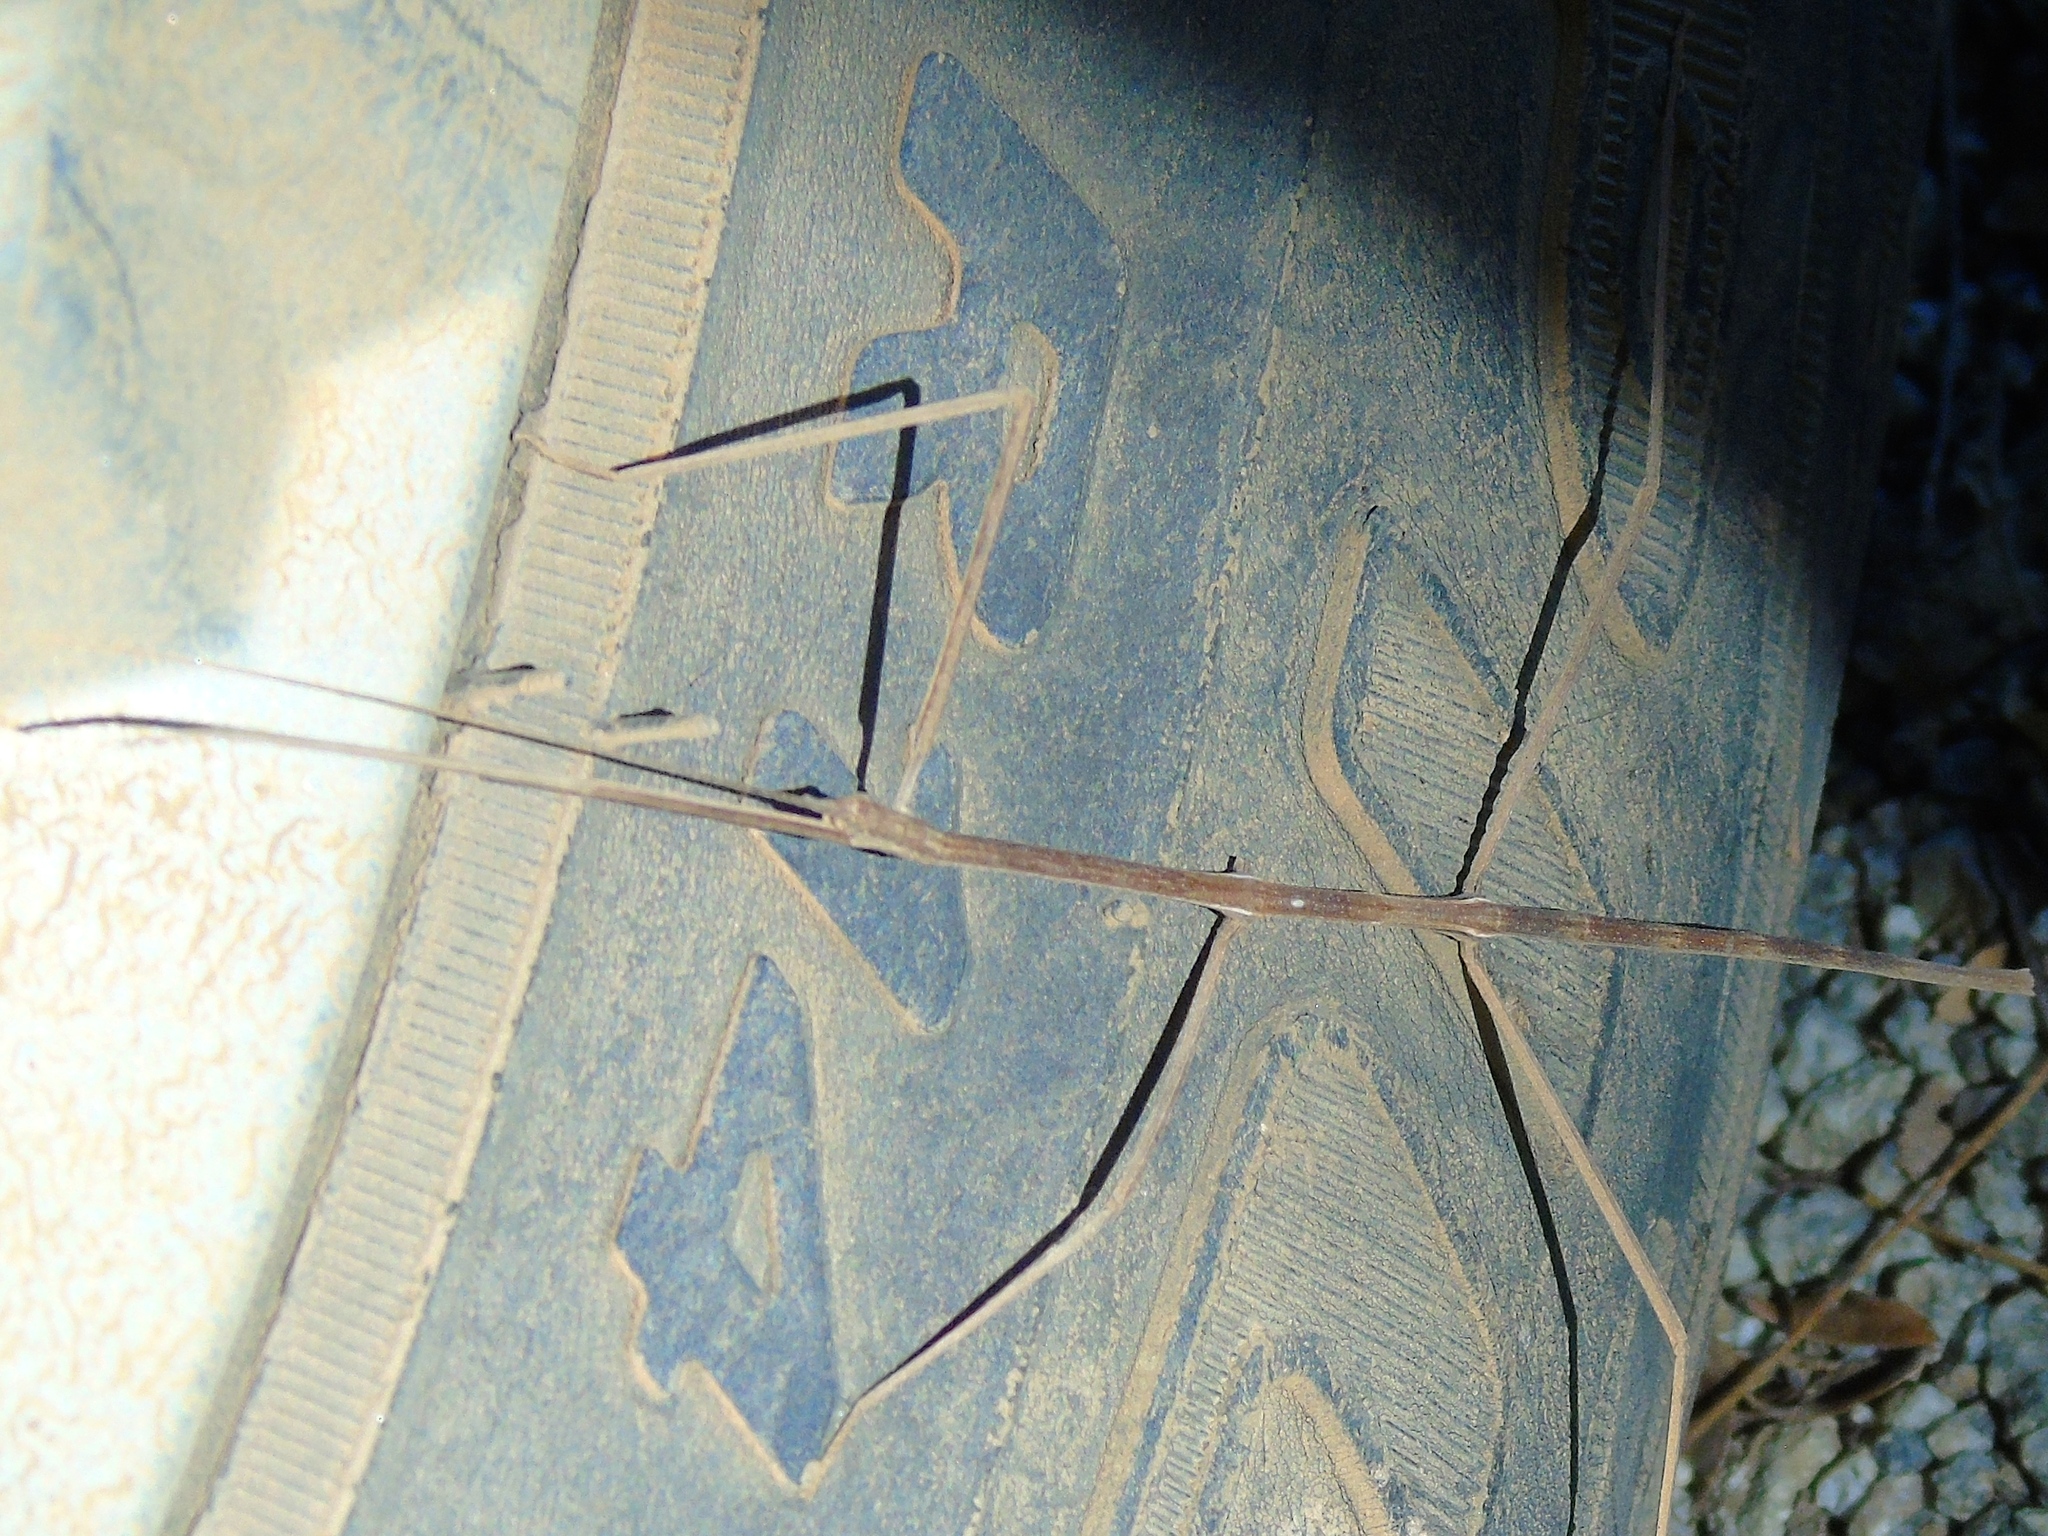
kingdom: Animalia
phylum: Arthropoda
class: Insecta
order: Phasmida
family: Diapheromeridae
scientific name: Diapheromeridae
